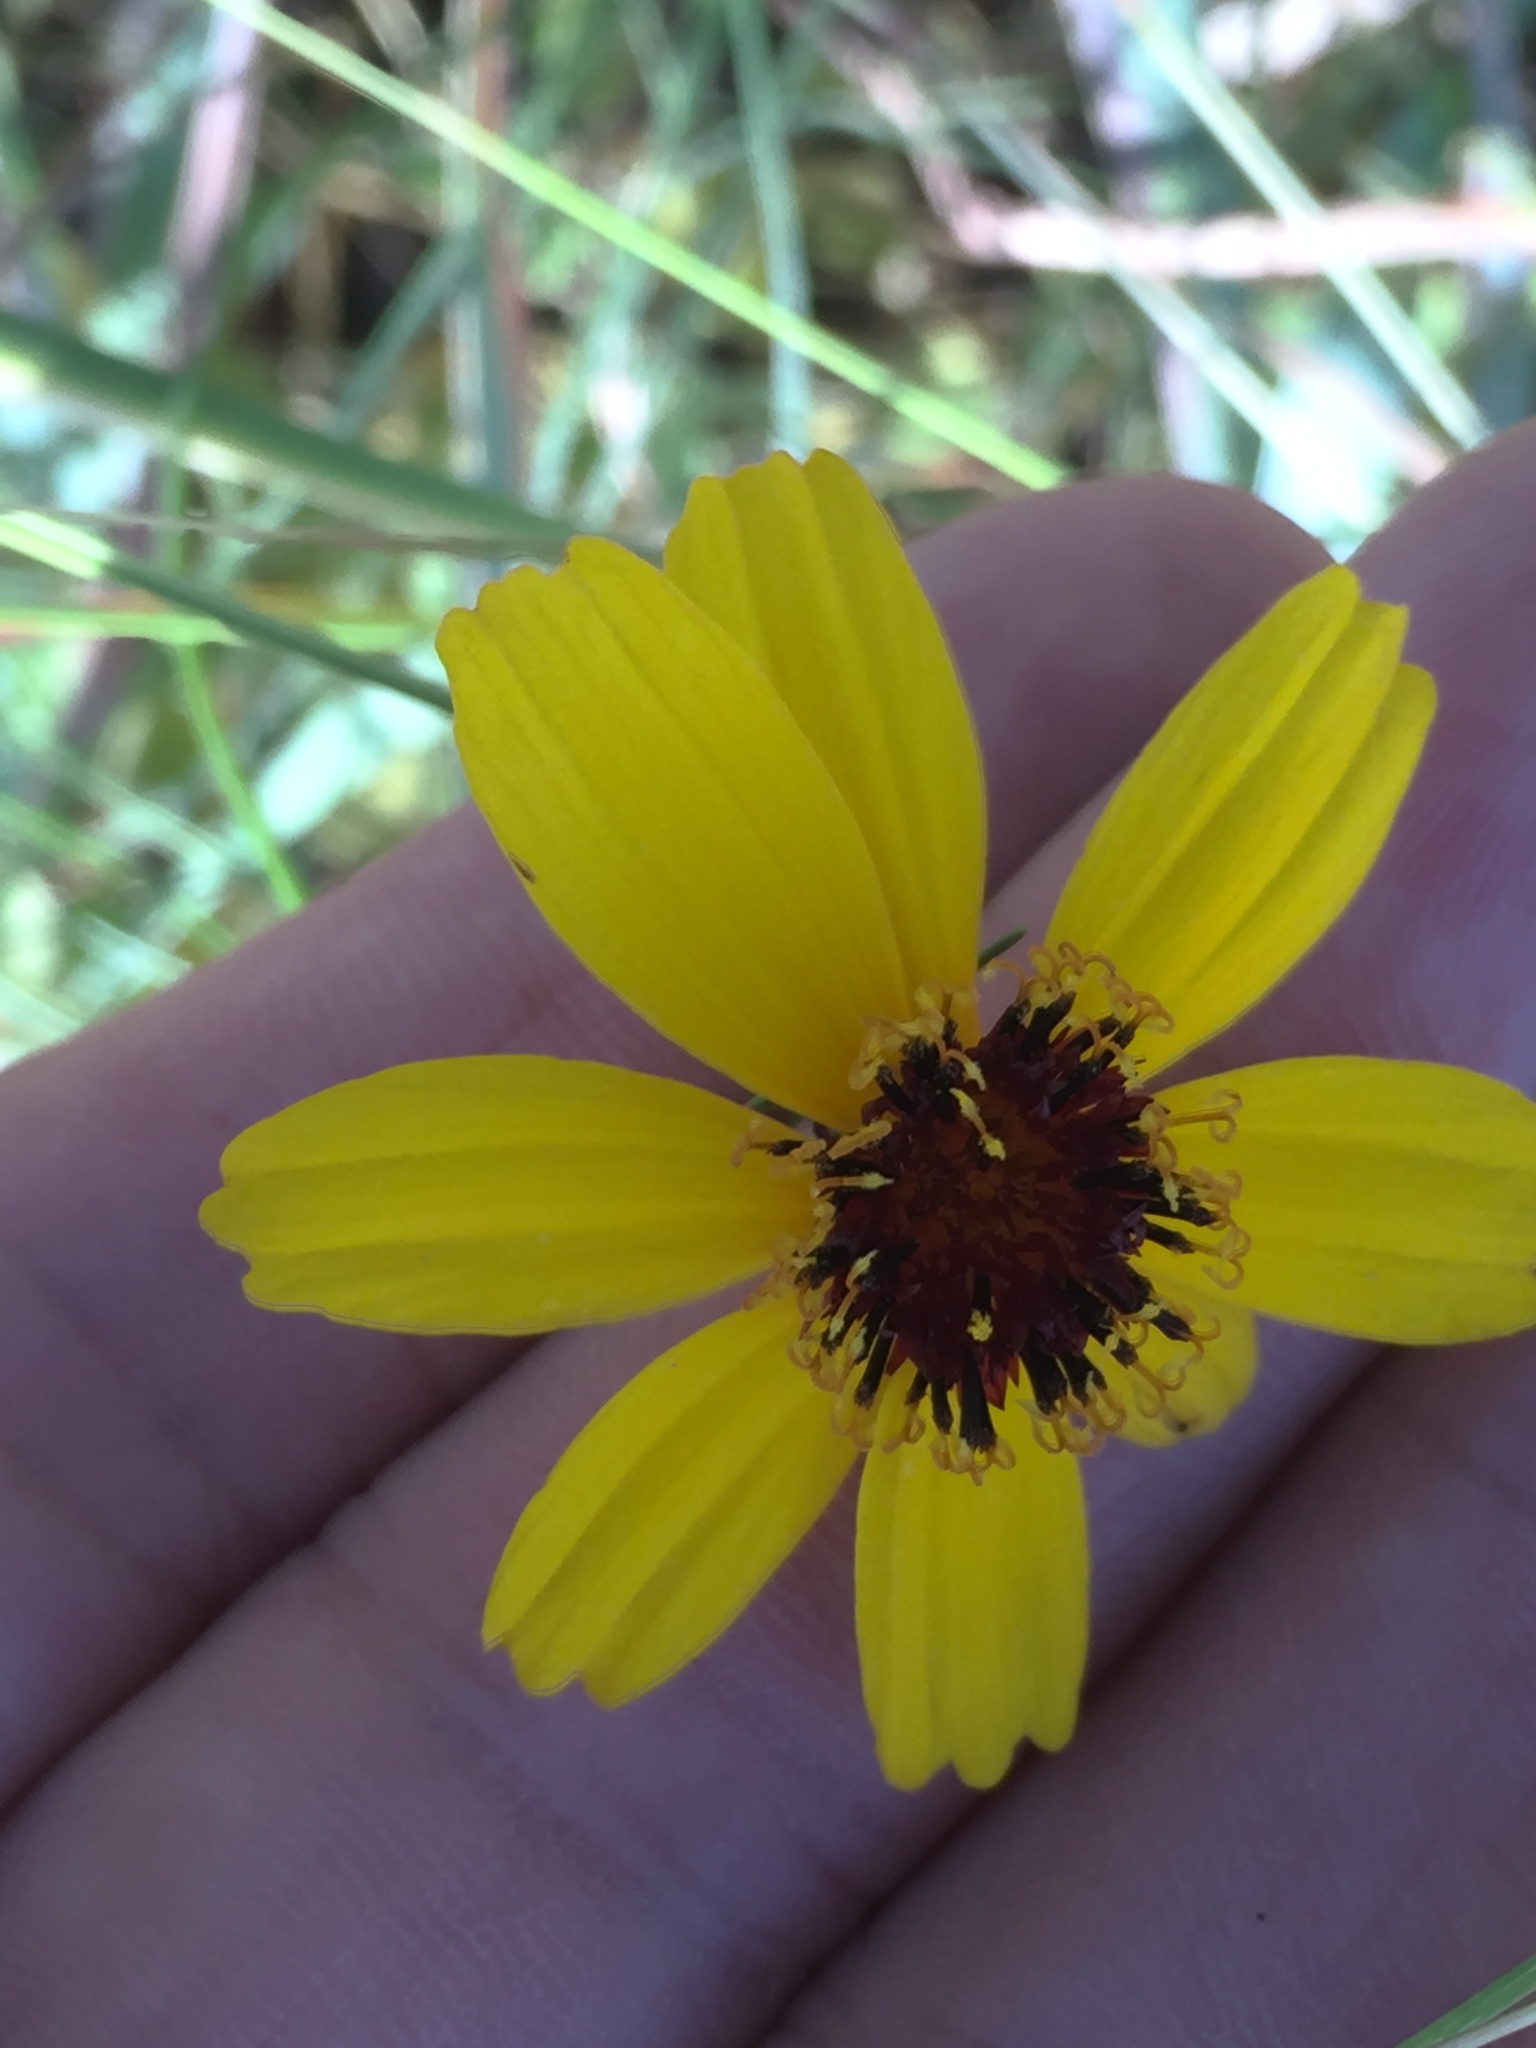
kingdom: Plantae
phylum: Tracheophyta
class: Magnoliopsida
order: Asterales
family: Asteraceae
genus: Thelesperma
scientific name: Thelesperma filifolium
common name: Stiff greenthread
